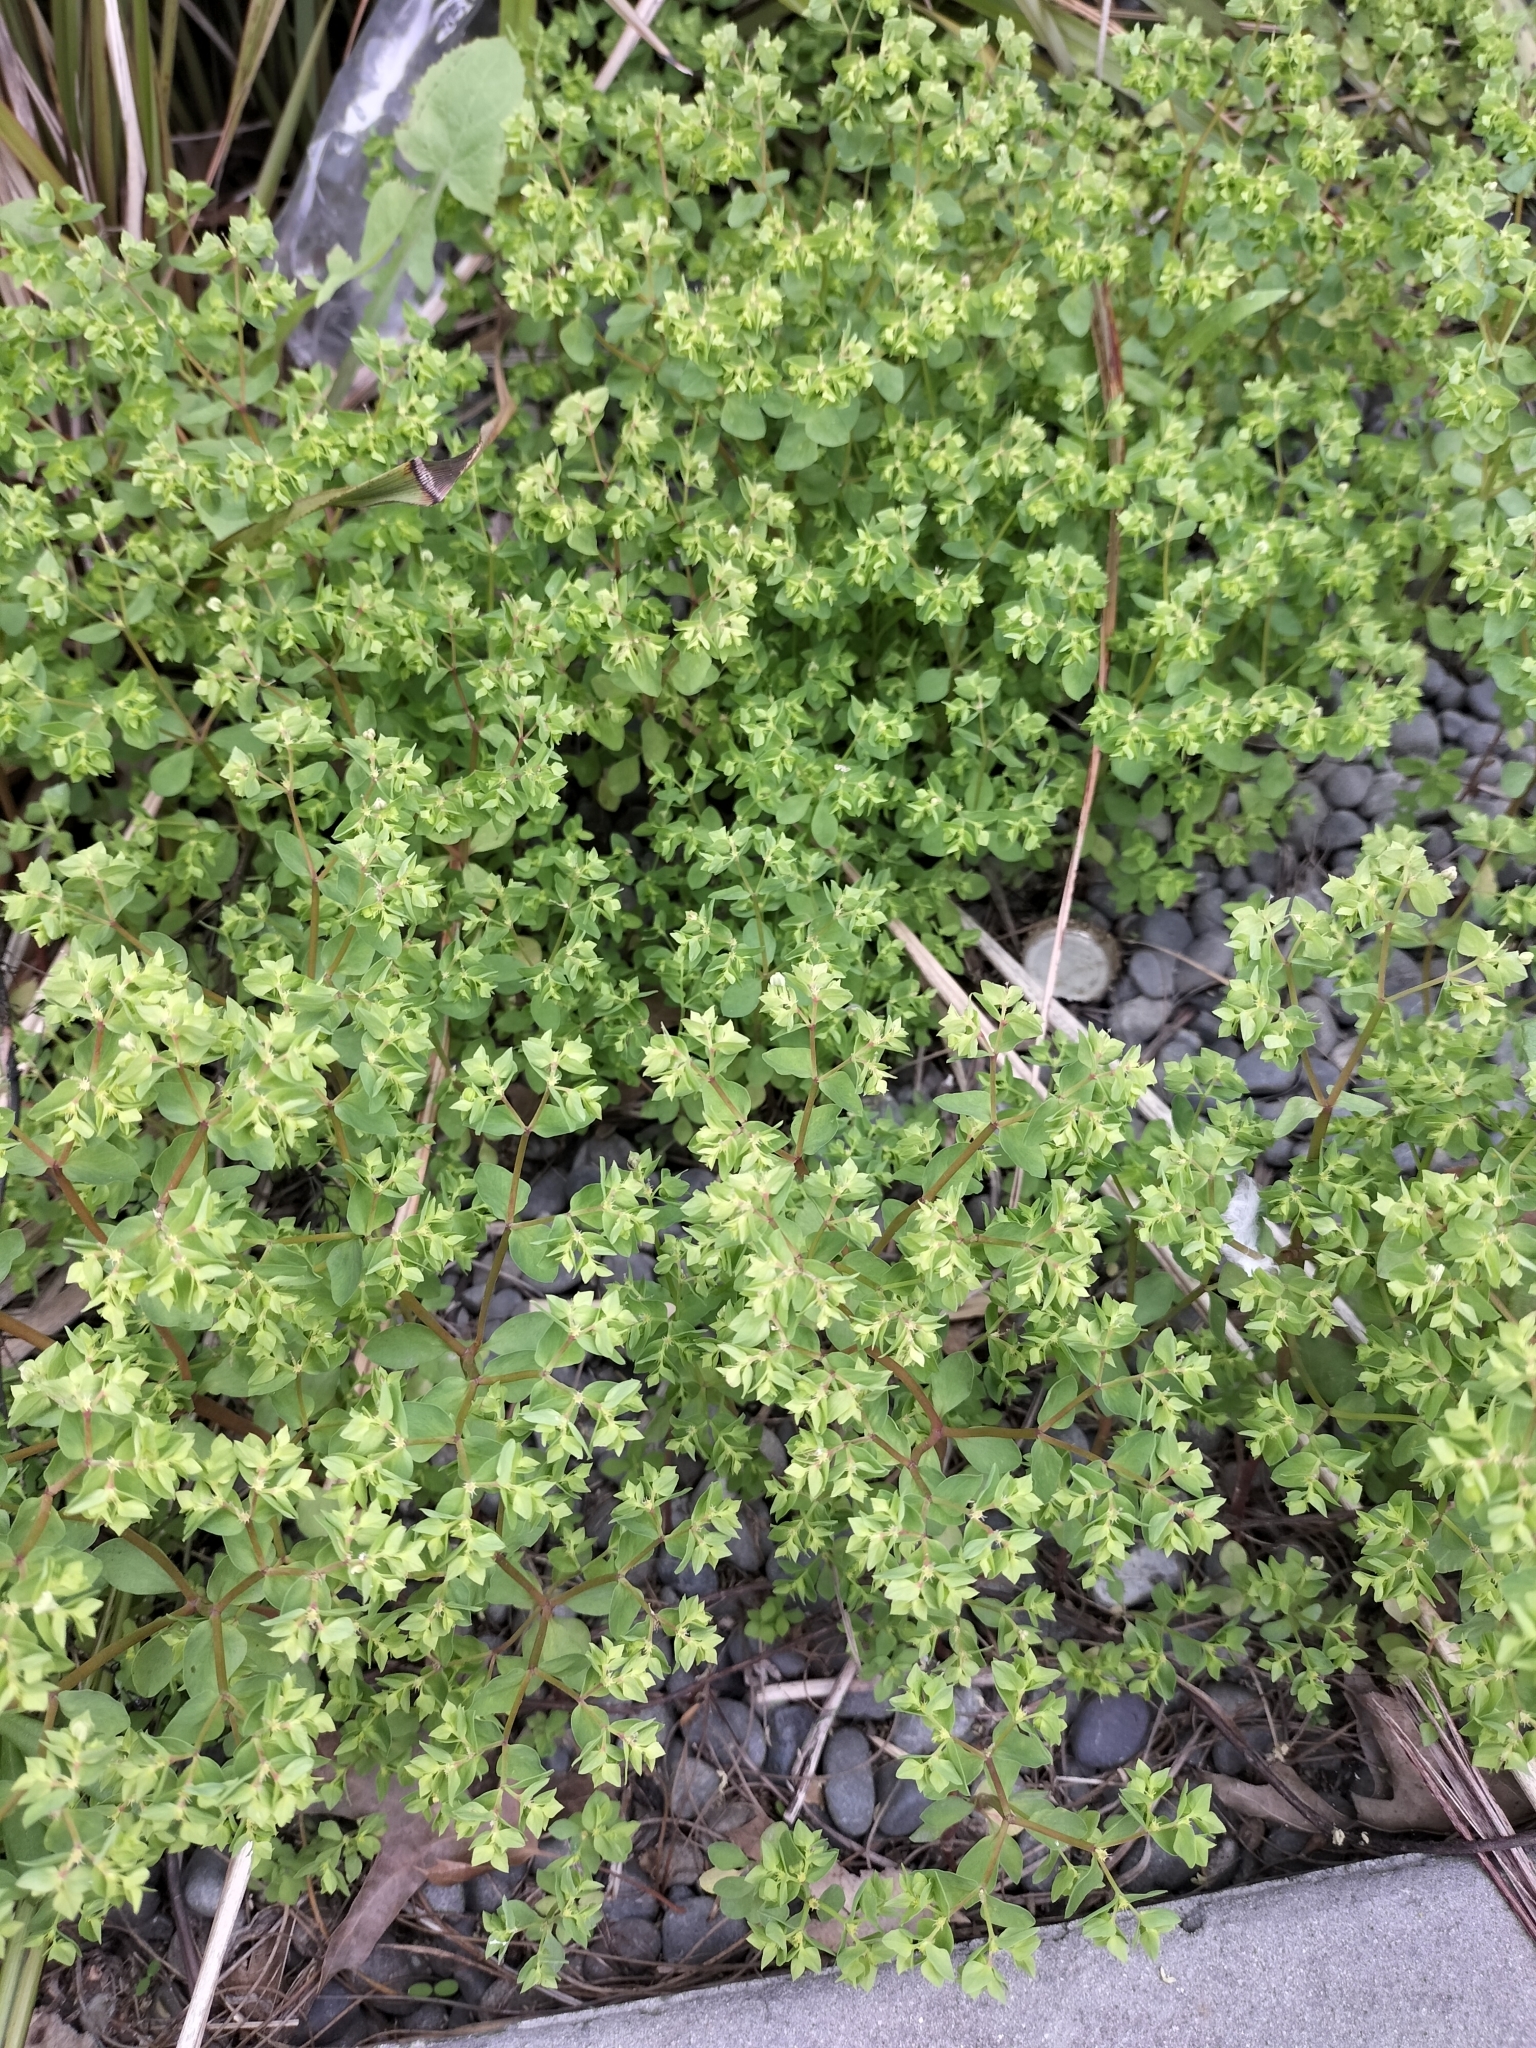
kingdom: Plantae
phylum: Tracheophyta
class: Magnoliopsida
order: Malpighiales
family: Euphorbiaceae
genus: Euphorbia
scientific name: Euphorbia peplus
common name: Petty spurge
